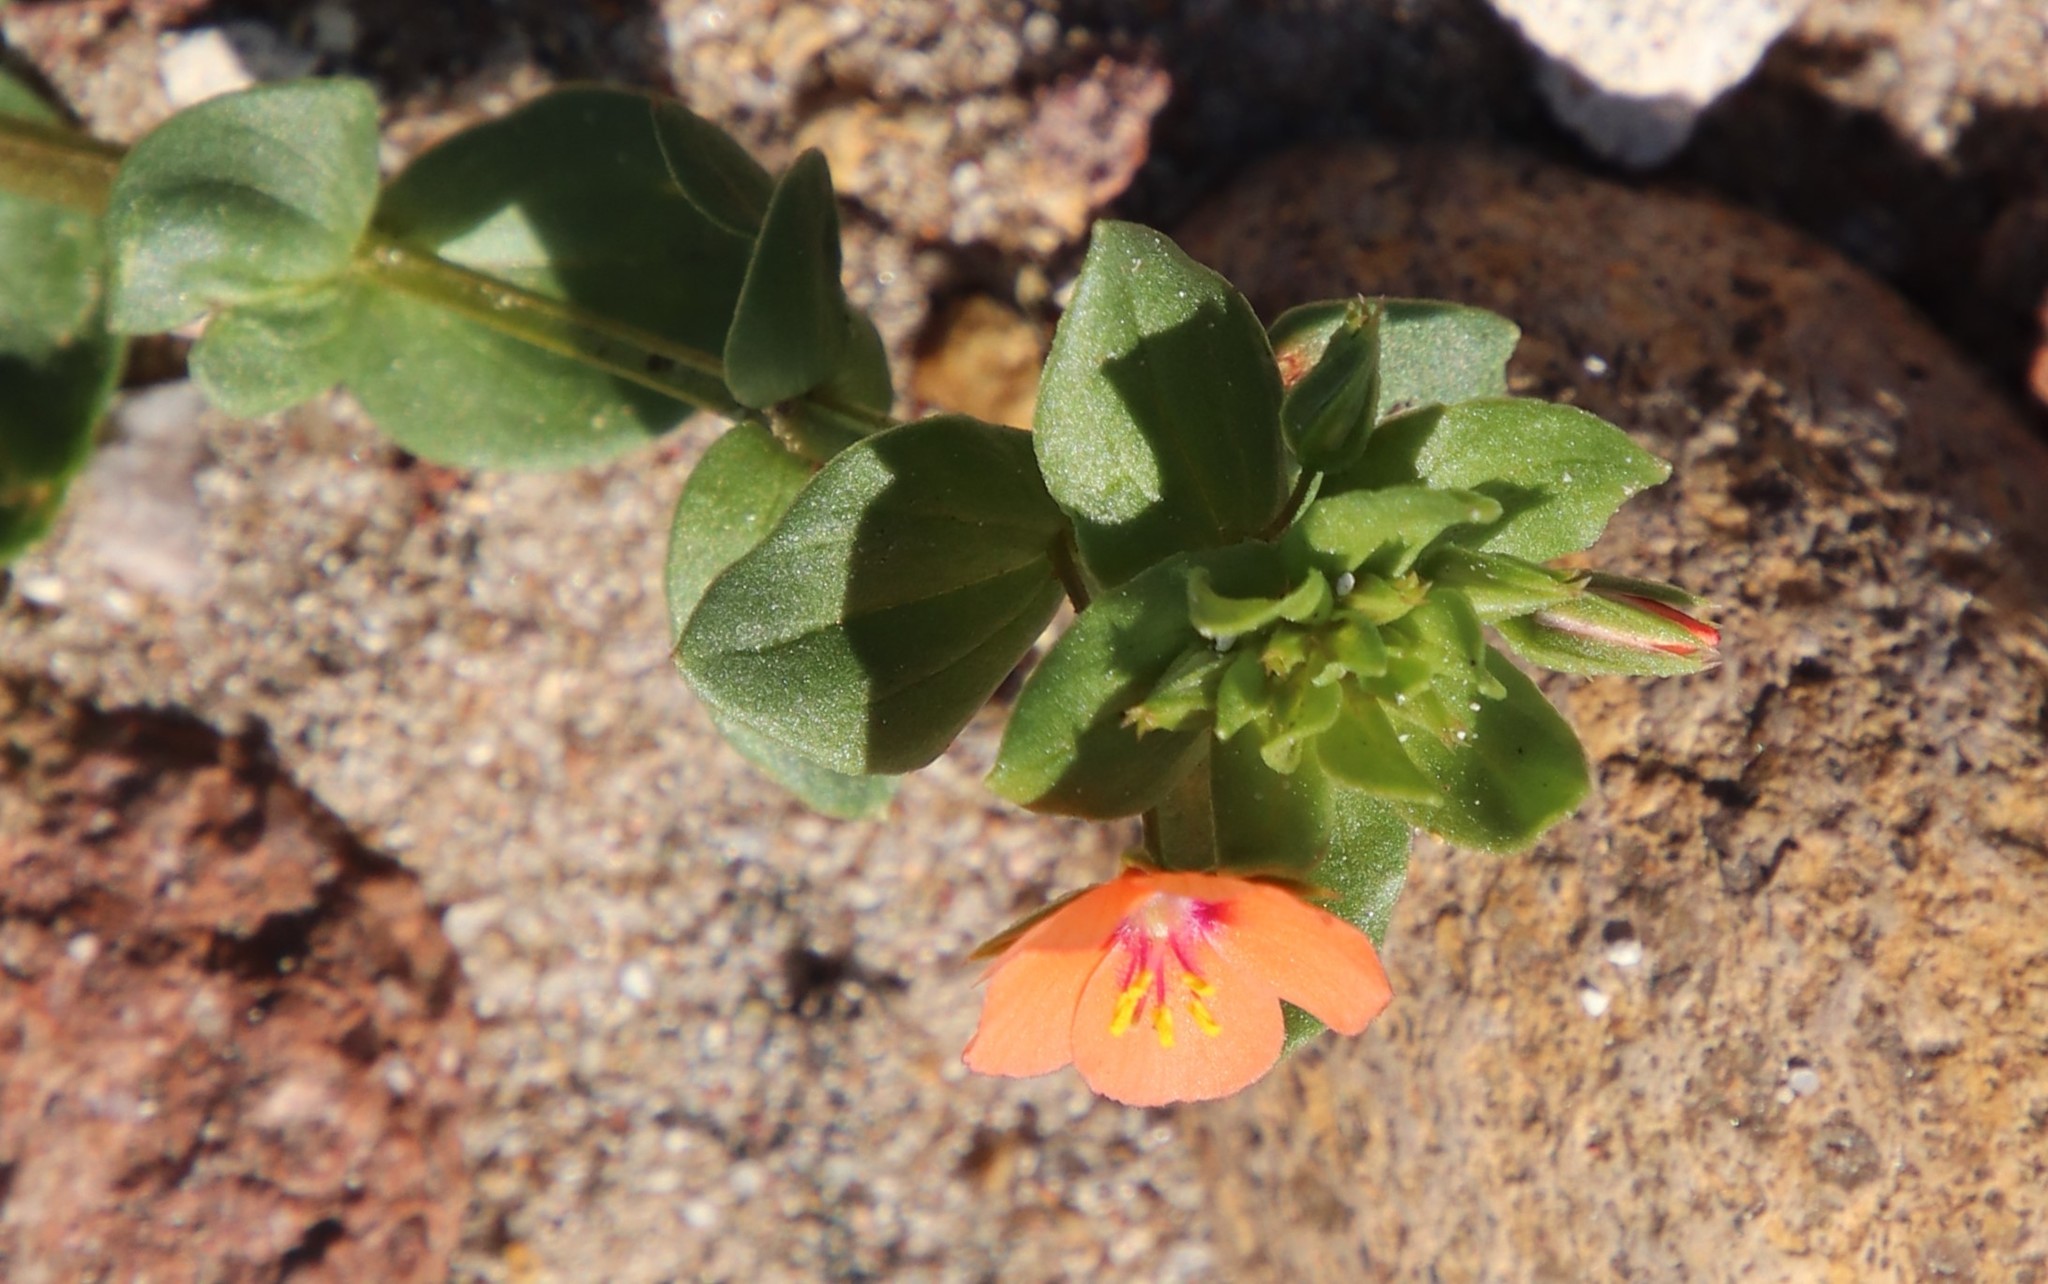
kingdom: Plantae
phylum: Tracheophyta
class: Magnoliopsida
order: Ericales
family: Primulaceae
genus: Lysimachia
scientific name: Lysimachia arvensis
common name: Scarlet pimpernel
